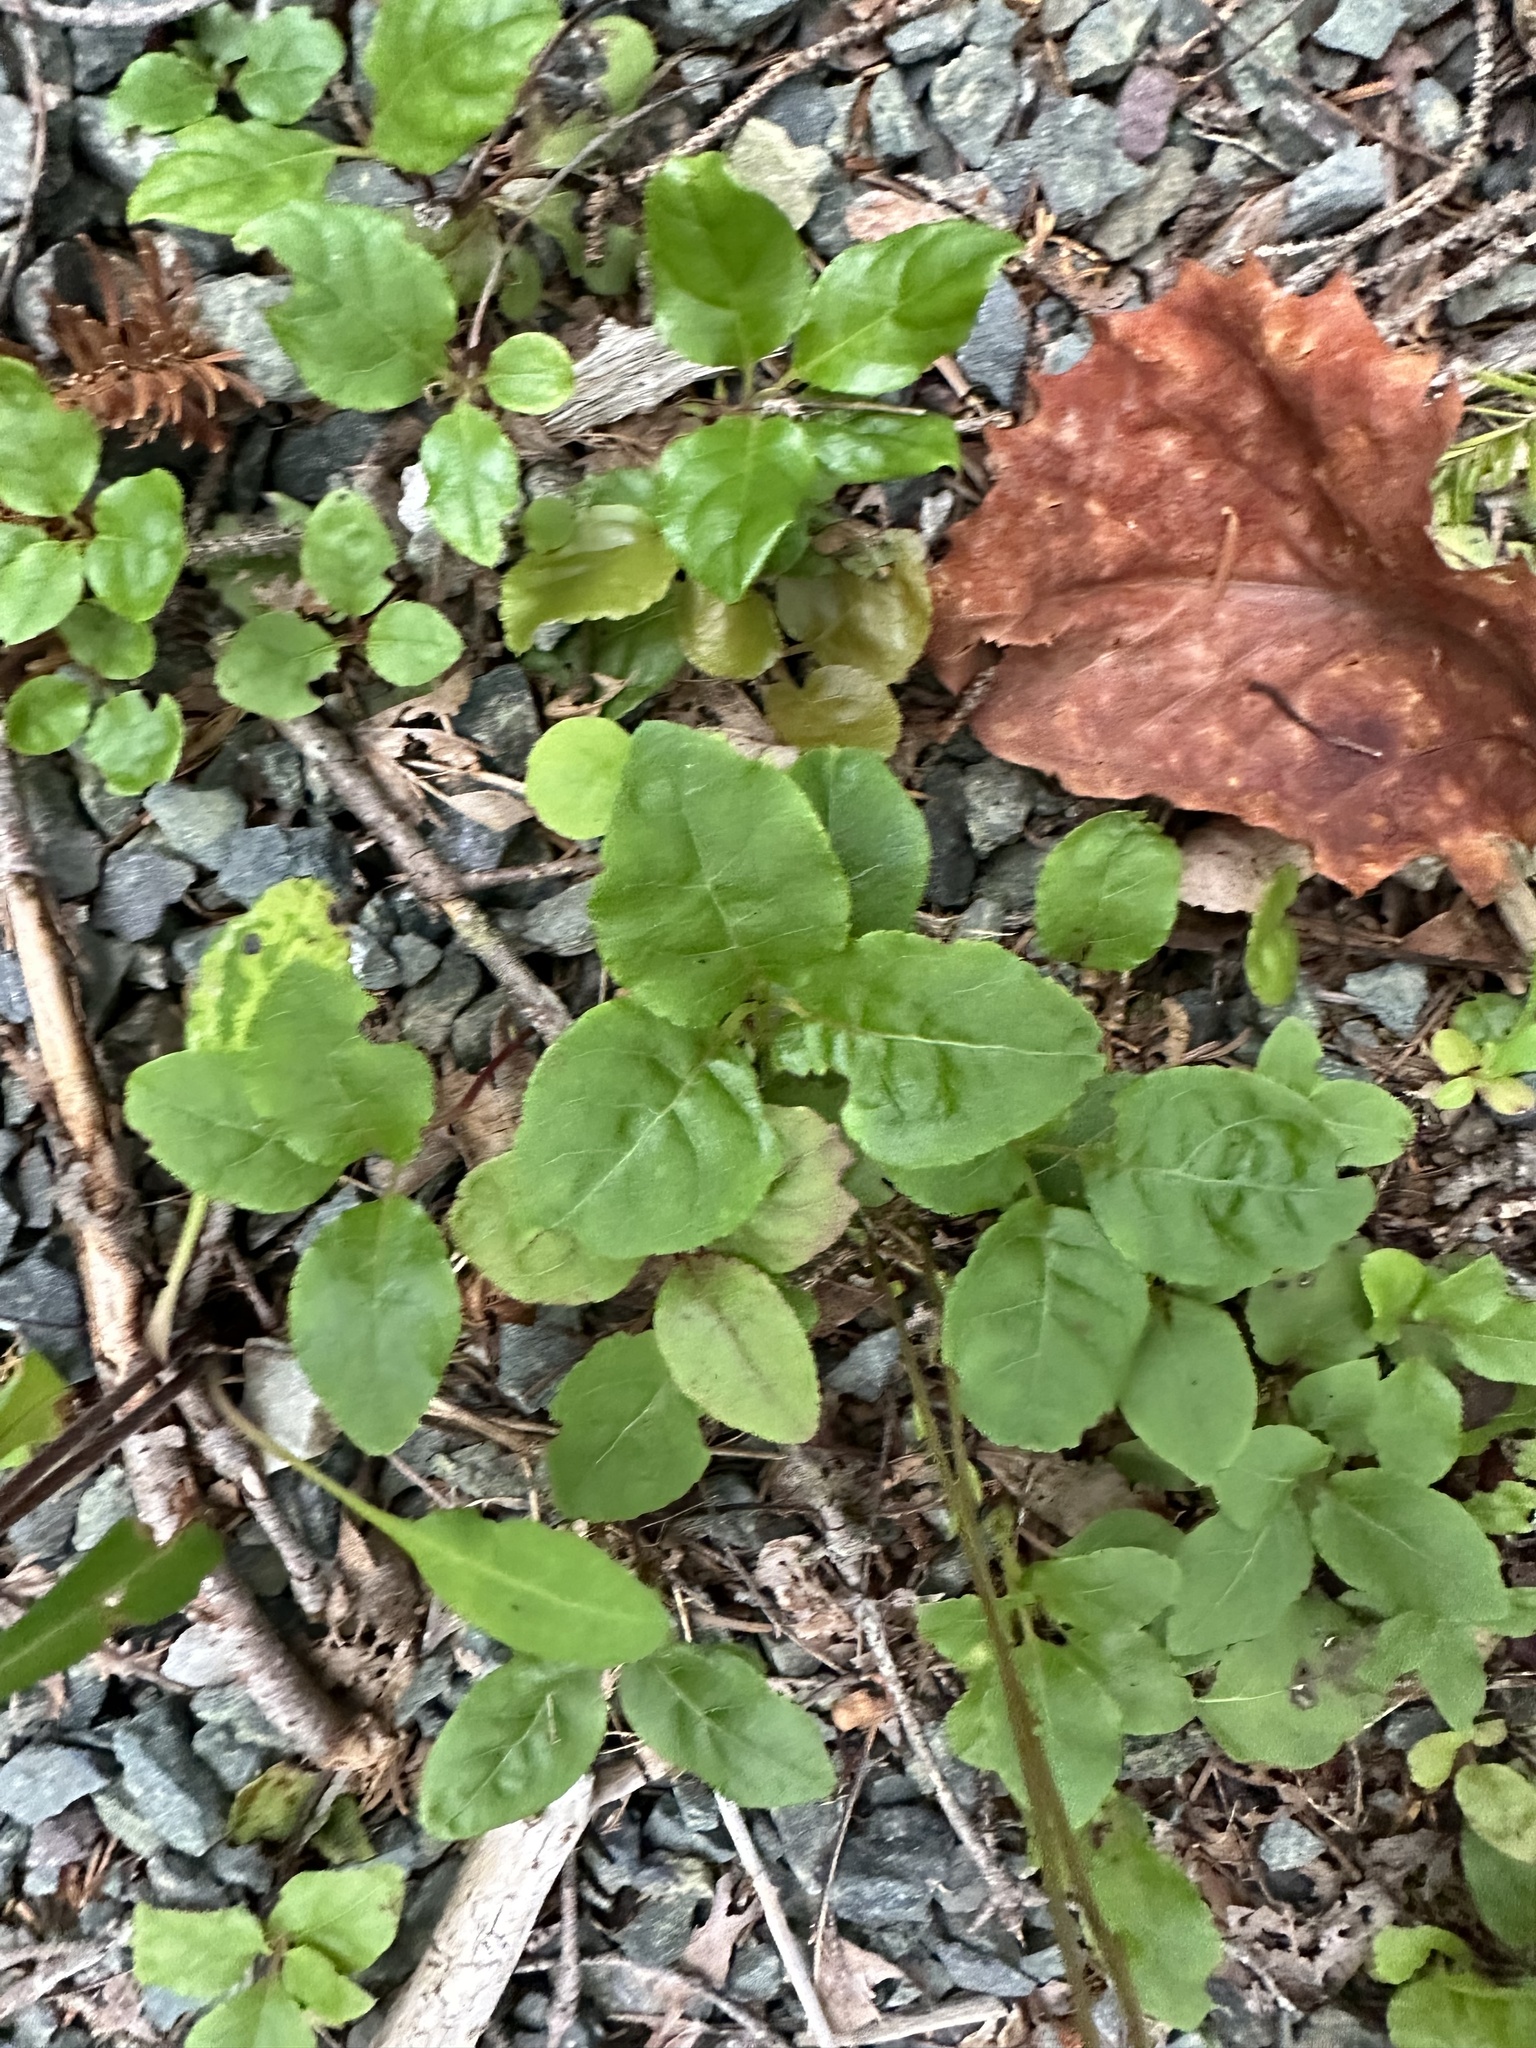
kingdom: Plantae
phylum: Tracheophyta
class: Magnoliopsida
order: Ericales
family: Ericaceae
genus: Orthilia
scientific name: Orthilia secunda
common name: One-sided orthilia
